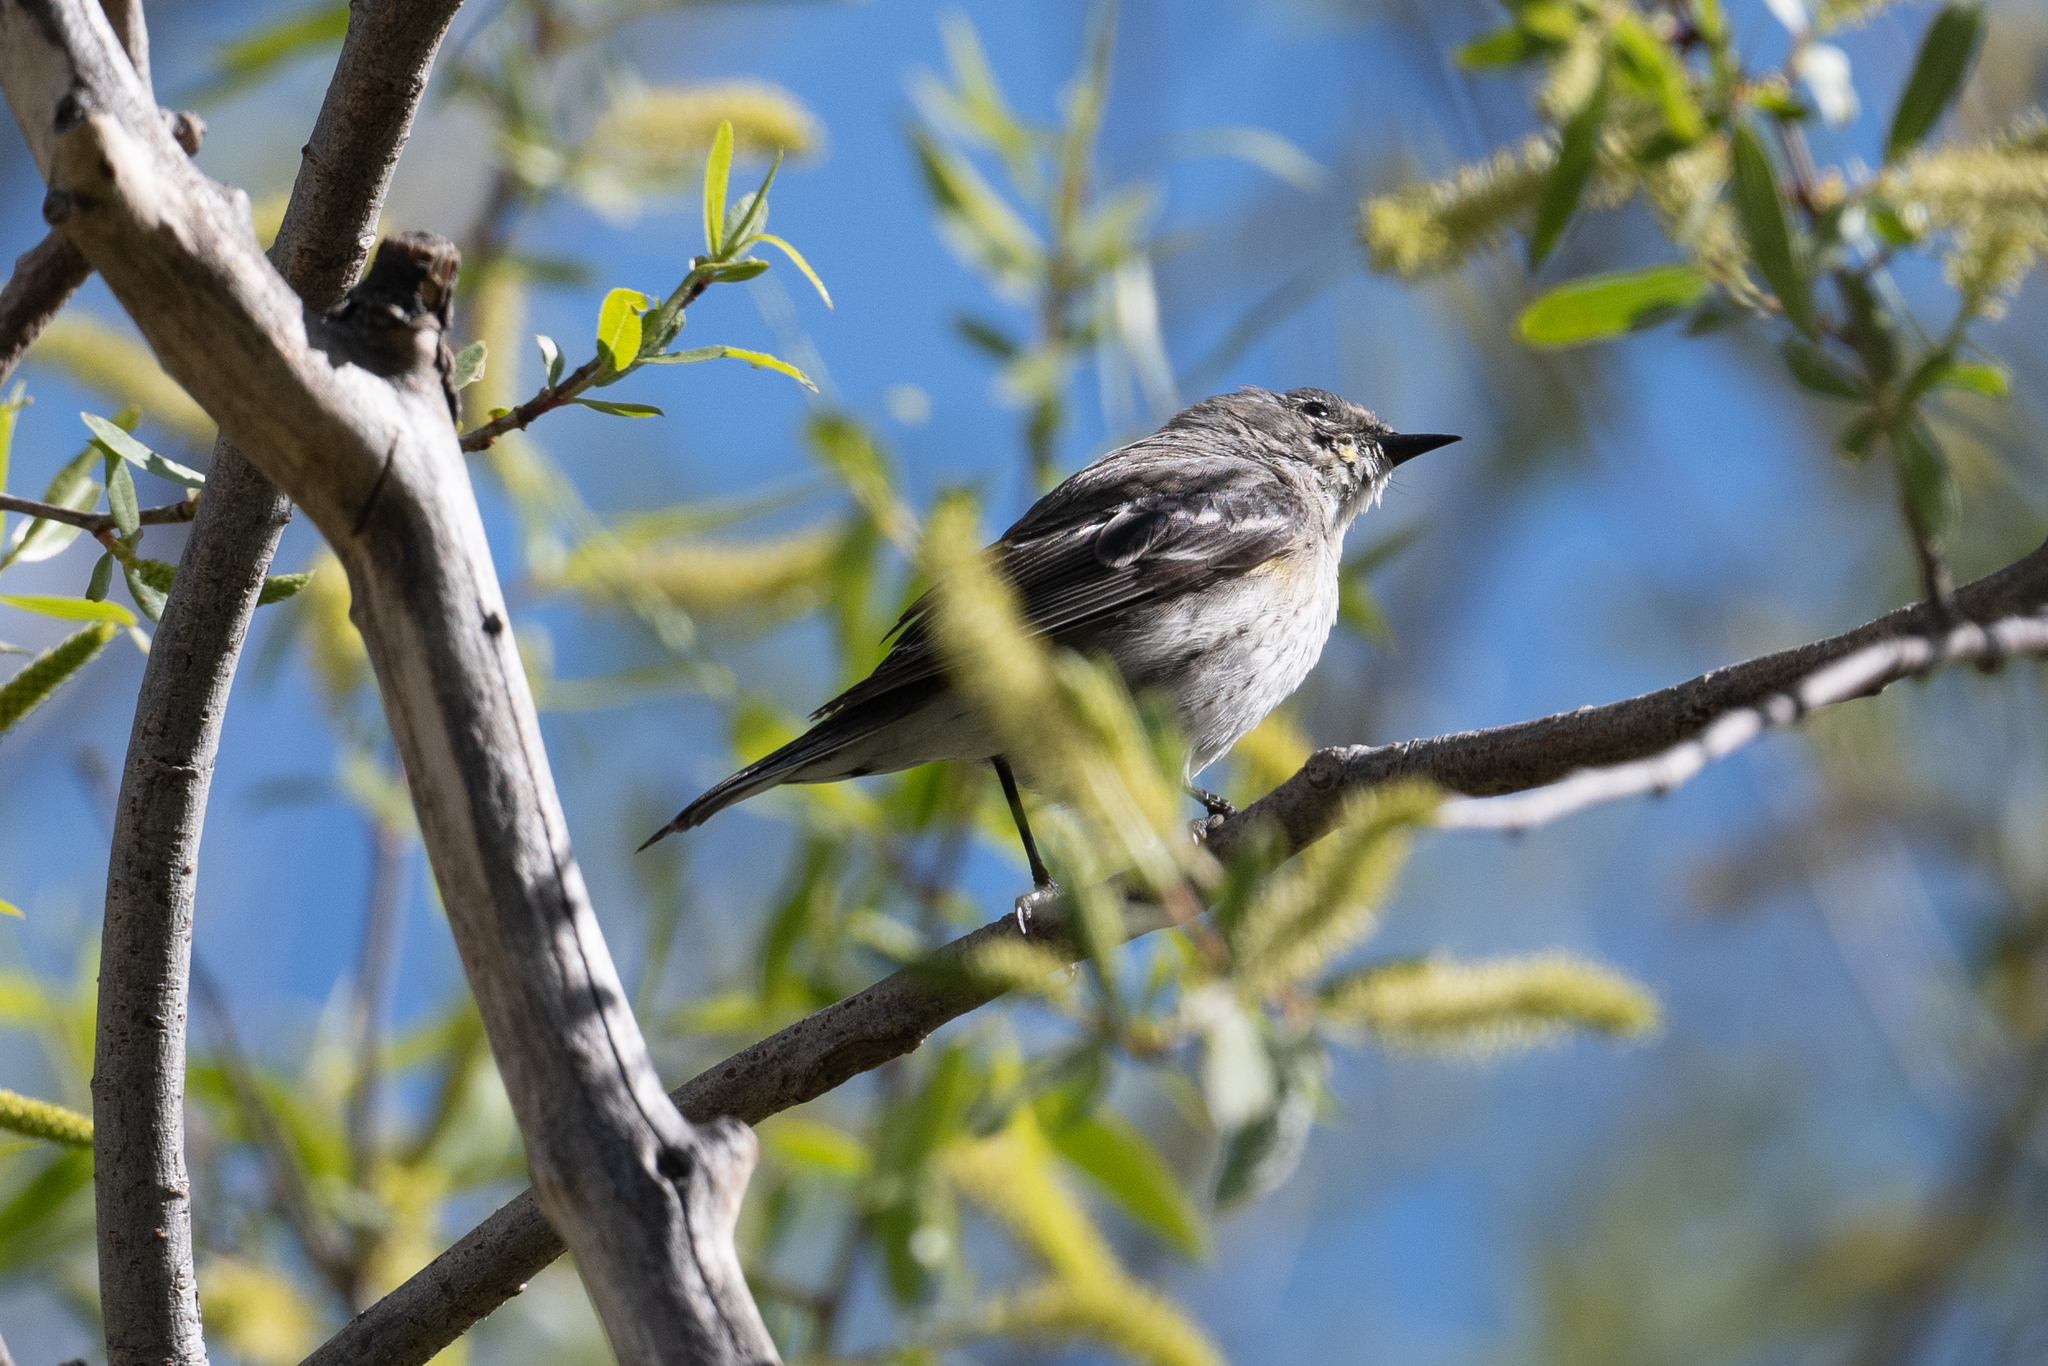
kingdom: Animalia
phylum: Chordata
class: Aves
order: Passeriformes
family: Parulidae
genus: Setophaga
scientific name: Setophaga coronata
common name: Myrtle warbler
